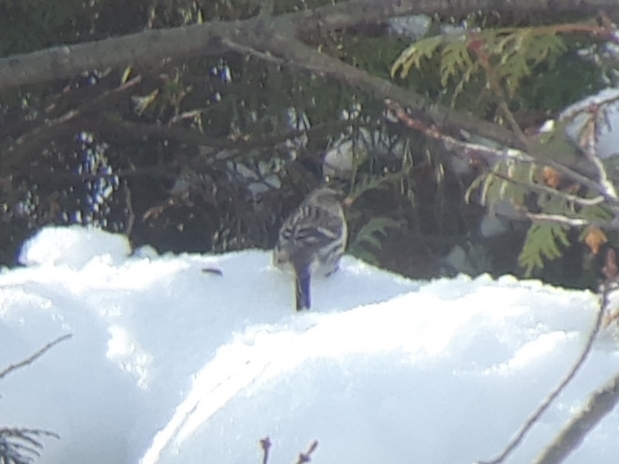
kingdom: Animalia
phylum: Chordata
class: Aves
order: Passeriformes
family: Fringillidae
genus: Acanthis
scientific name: Acanthis flammea
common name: Common redpoll
